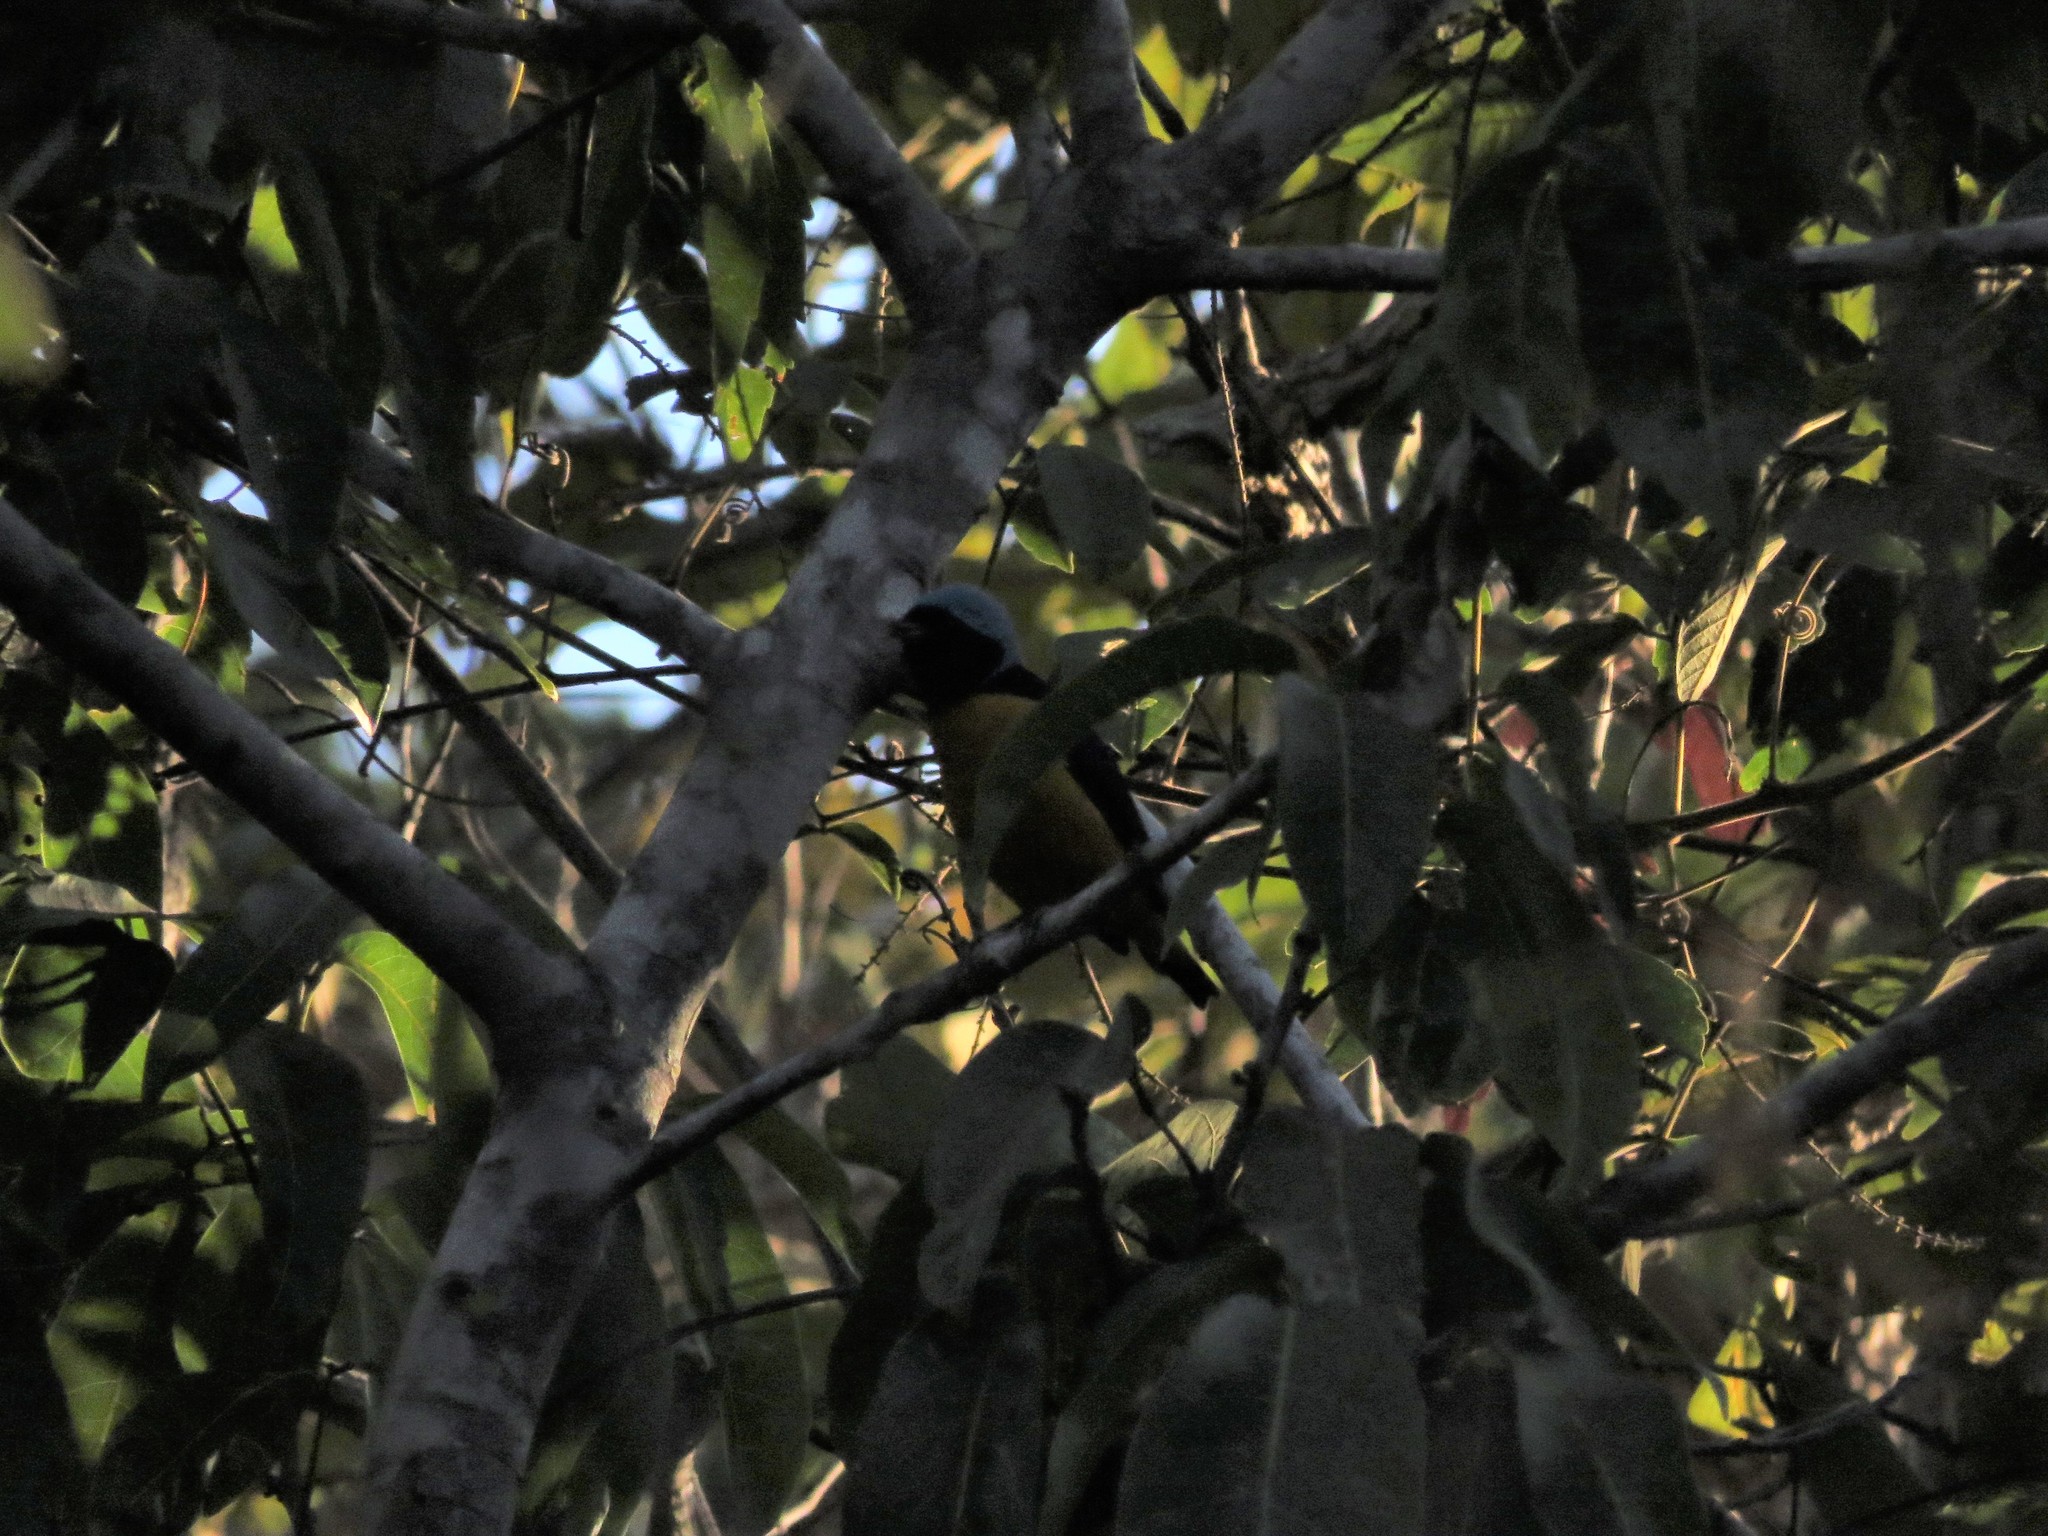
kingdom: Animalia
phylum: Chordata
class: Aves
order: Passeriformes
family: Fringillidae
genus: Euphonia
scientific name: Euphonia cyanocephala
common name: Golden-rumped euphonia
